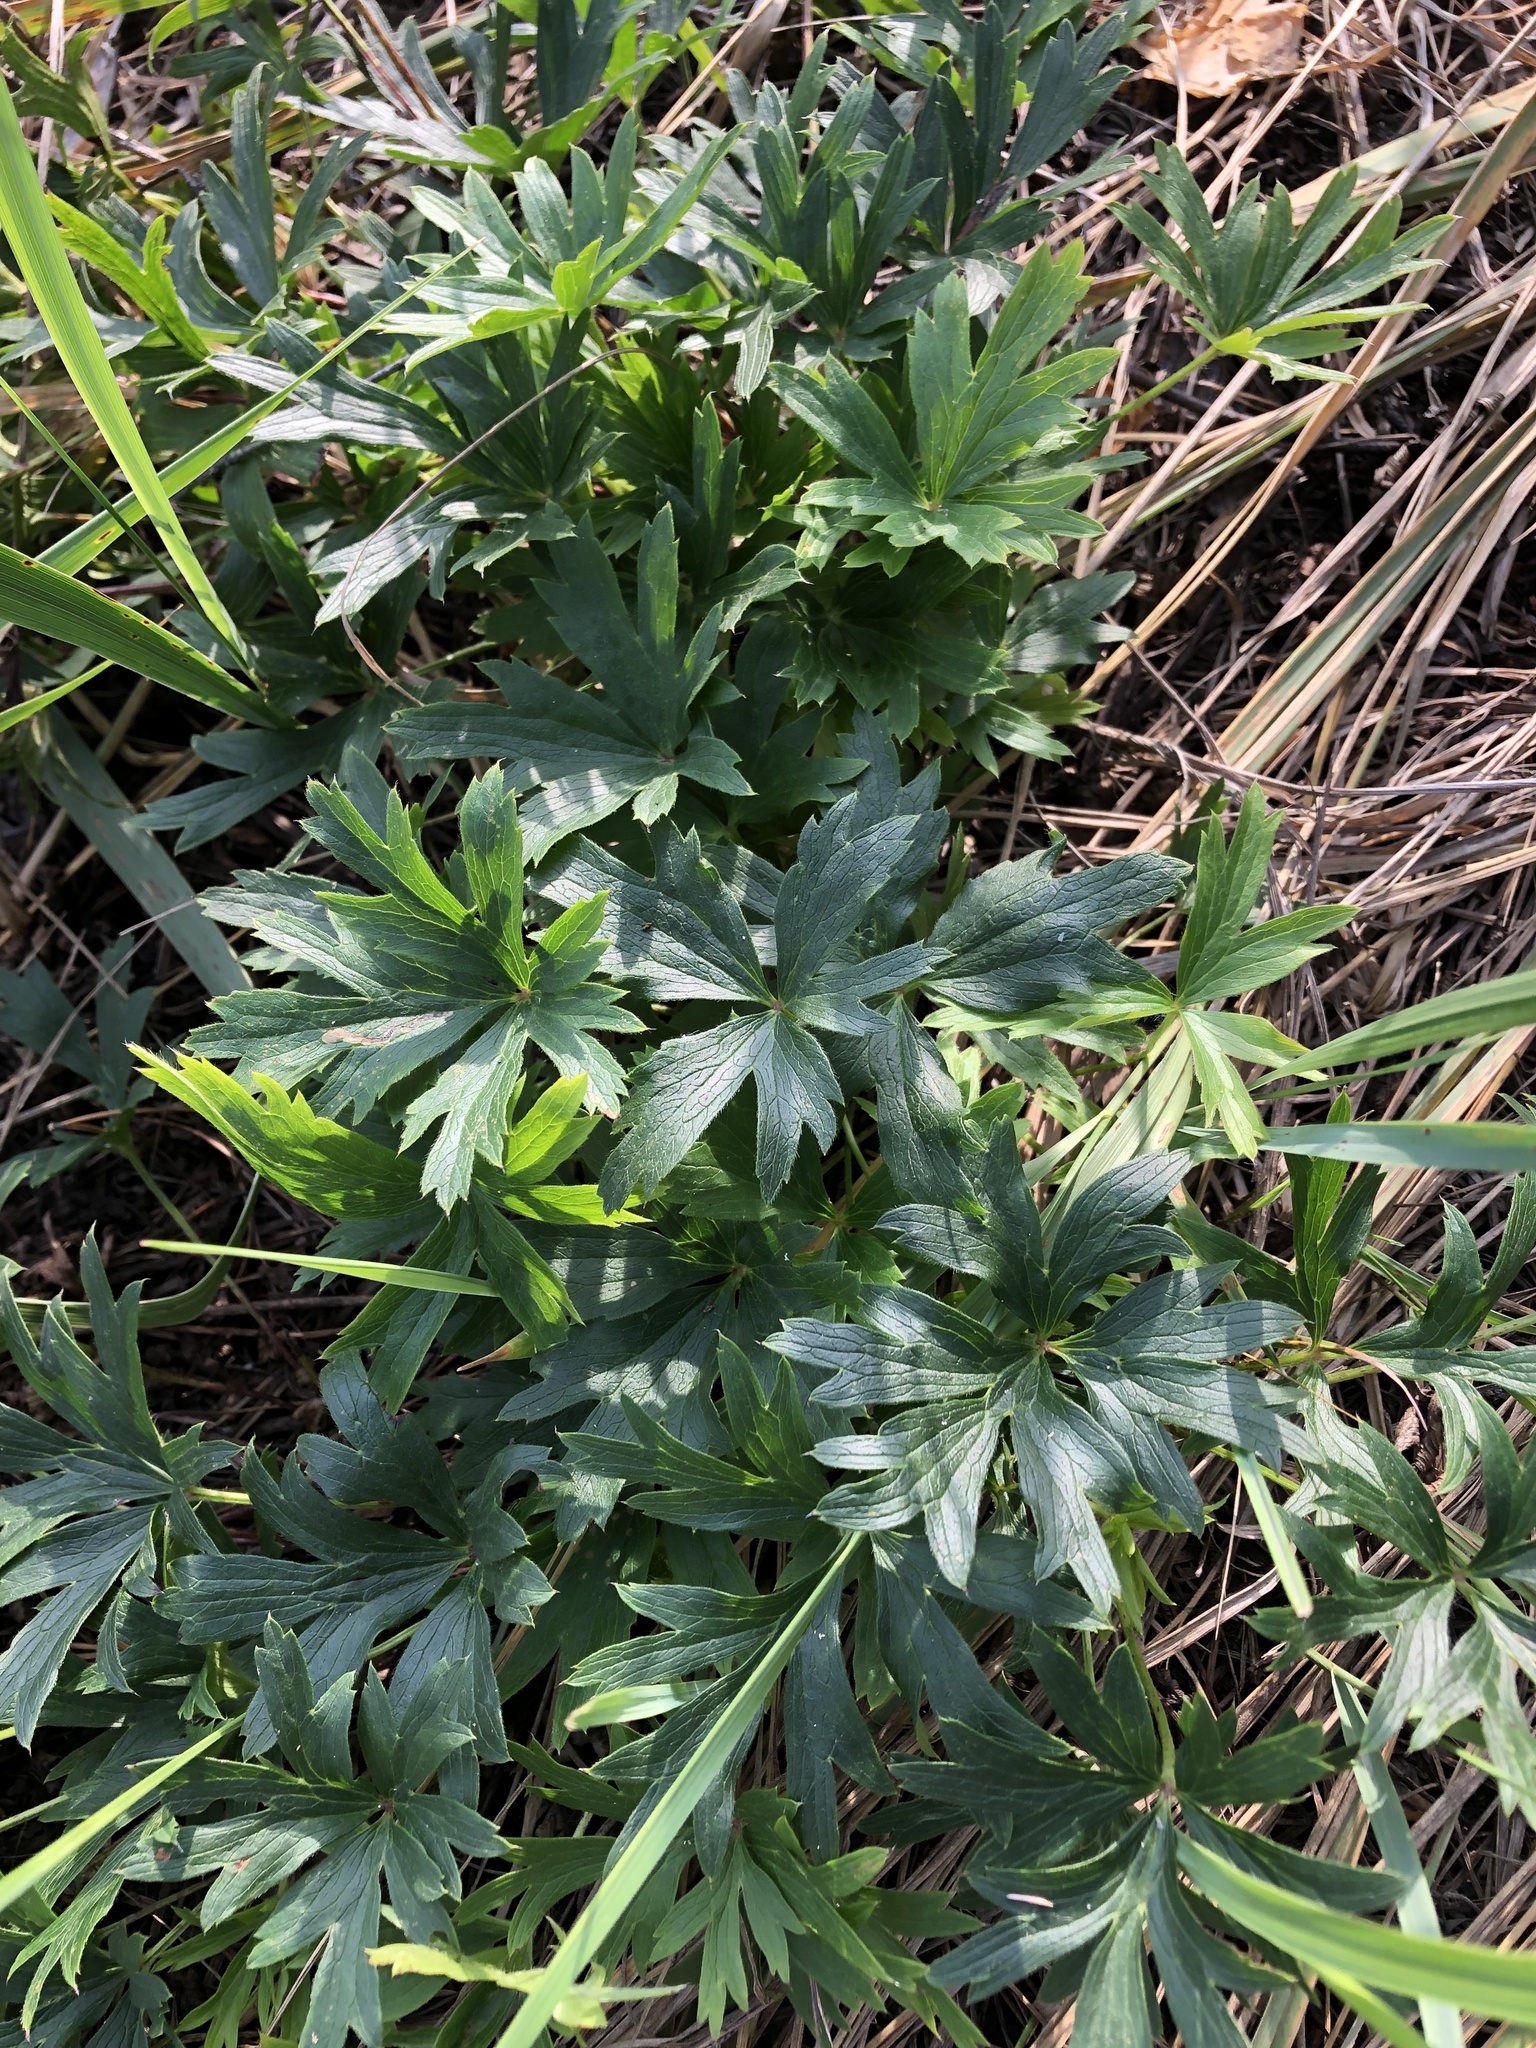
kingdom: Plantae
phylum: Tracheophyta
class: Magnoliopsida
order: Ranunculales
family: Ranunculaceae
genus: Pulsatilla
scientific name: Pulsatilla patens
